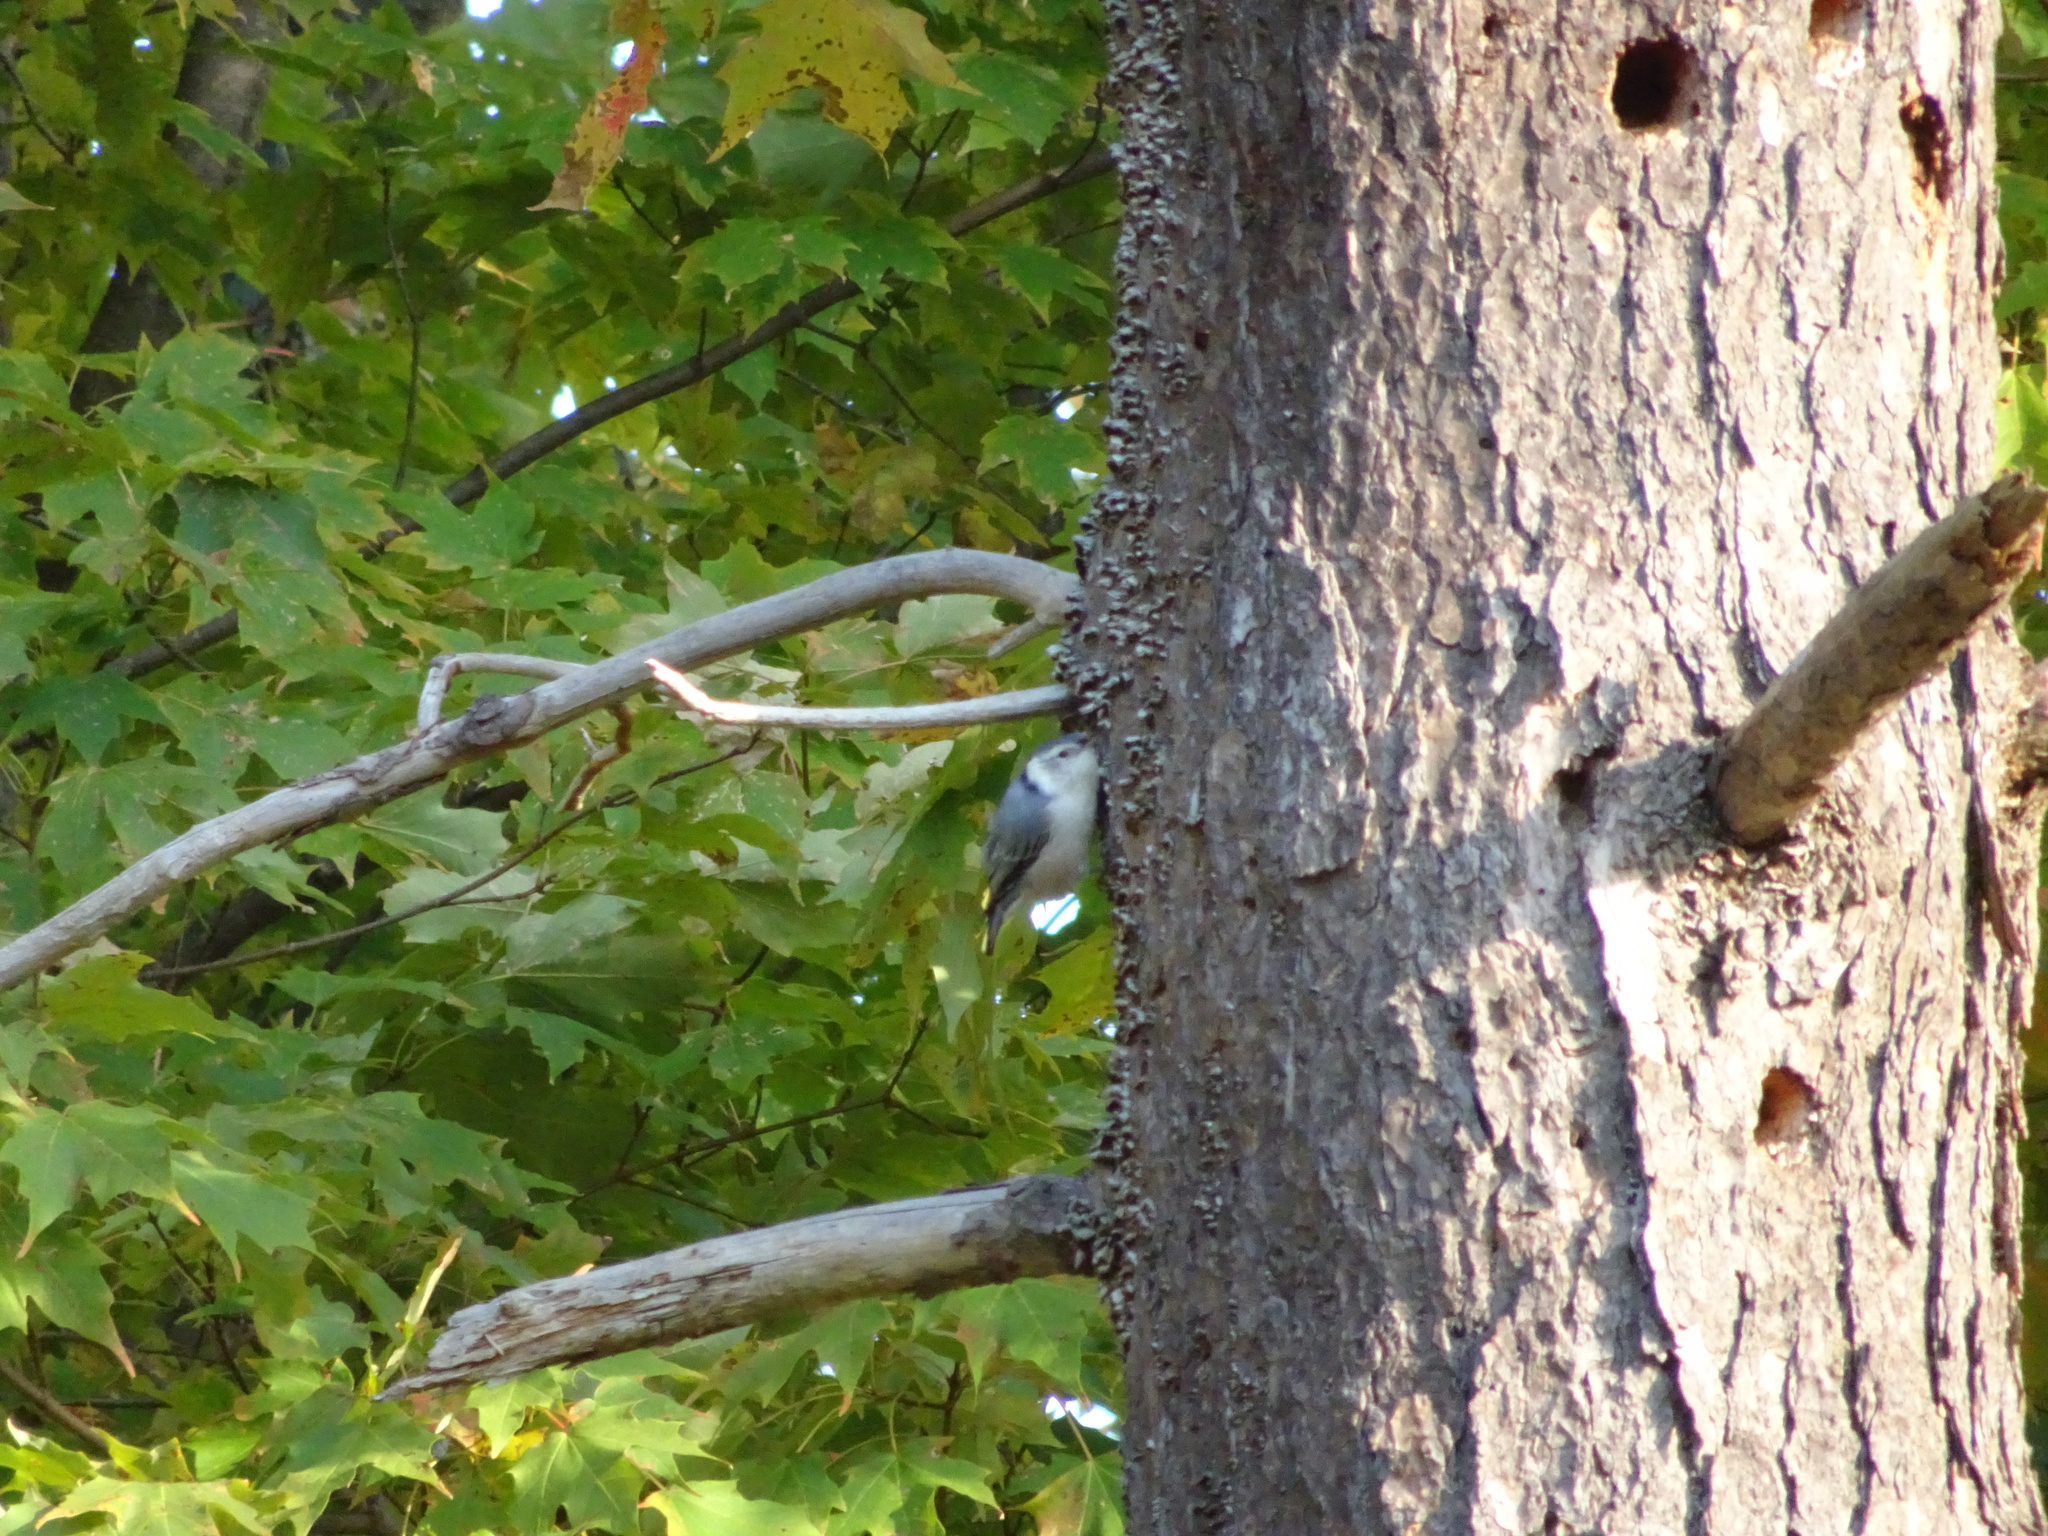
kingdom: Animalia
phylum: Chordata
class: Aves
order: Passeriformes
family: Sittidae
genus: Sitta
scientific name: Sitta carolinensis
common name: White-breasted nuthatch
